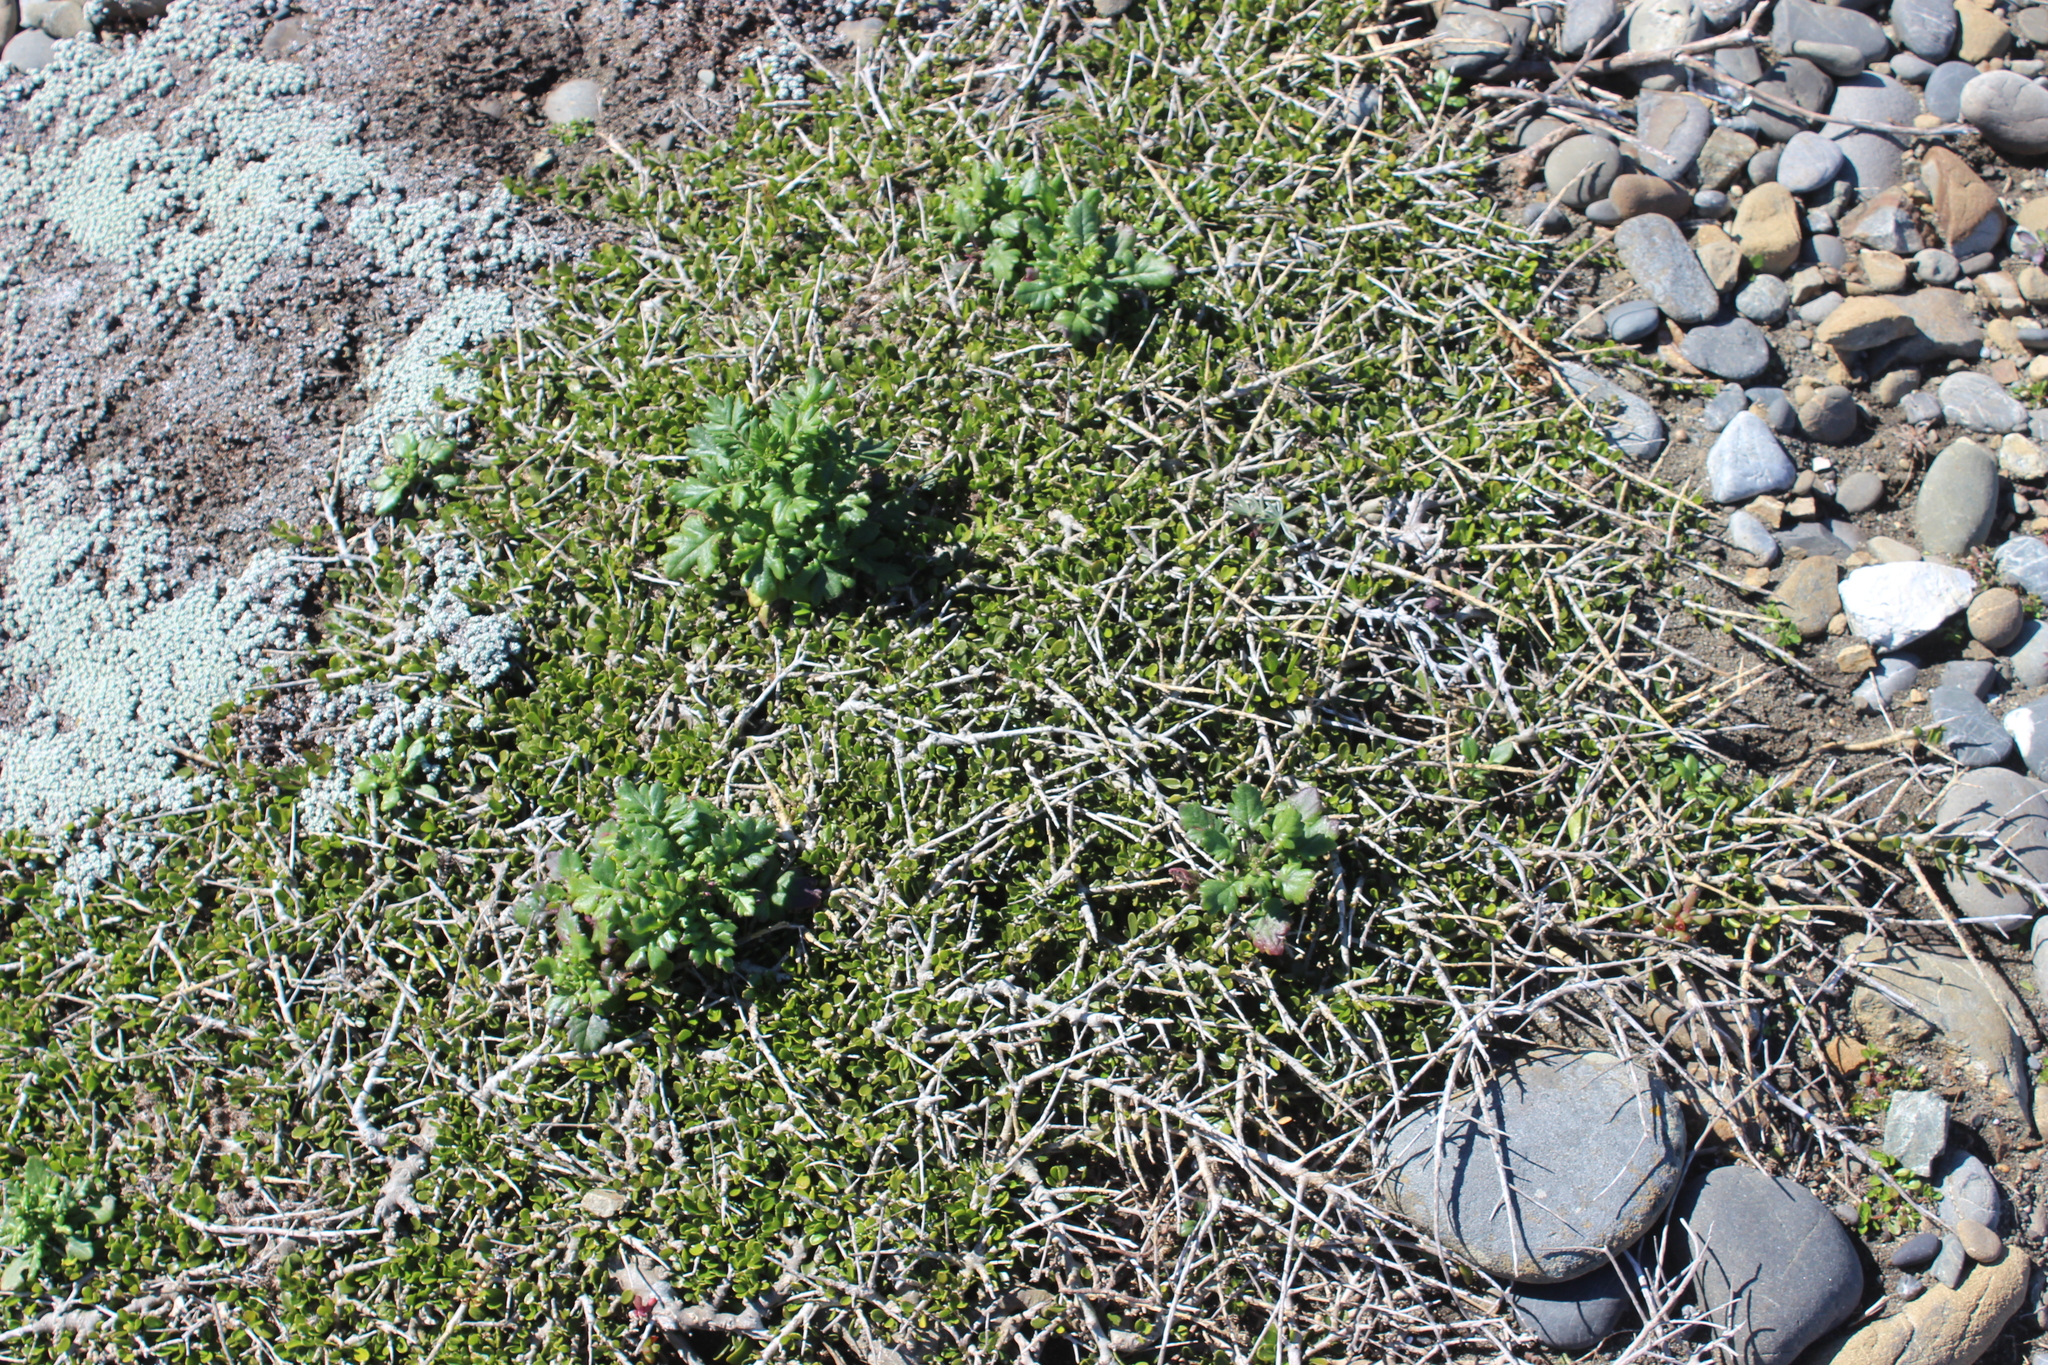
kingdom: Plantae
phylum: Tracheophyta
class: Magnoliopsida
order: Malpighiales
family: Violaceae
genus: Melicytus
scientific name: Melicytus crassifolius
